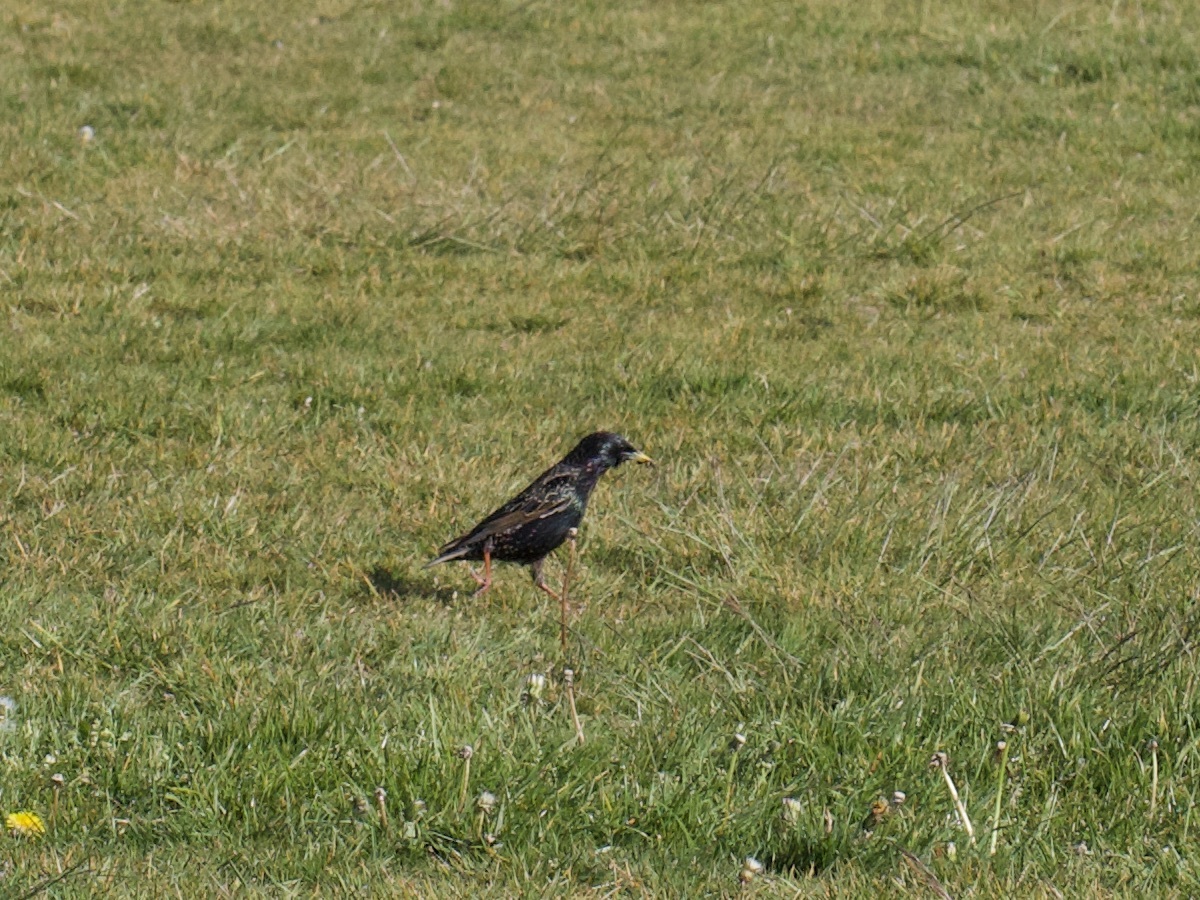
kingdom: Animalia
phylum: Chordata
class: Aves
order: Passeriformes
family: Sturnidae
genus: Sturnus
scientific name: Sturnus vulgaris
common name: Common starling
